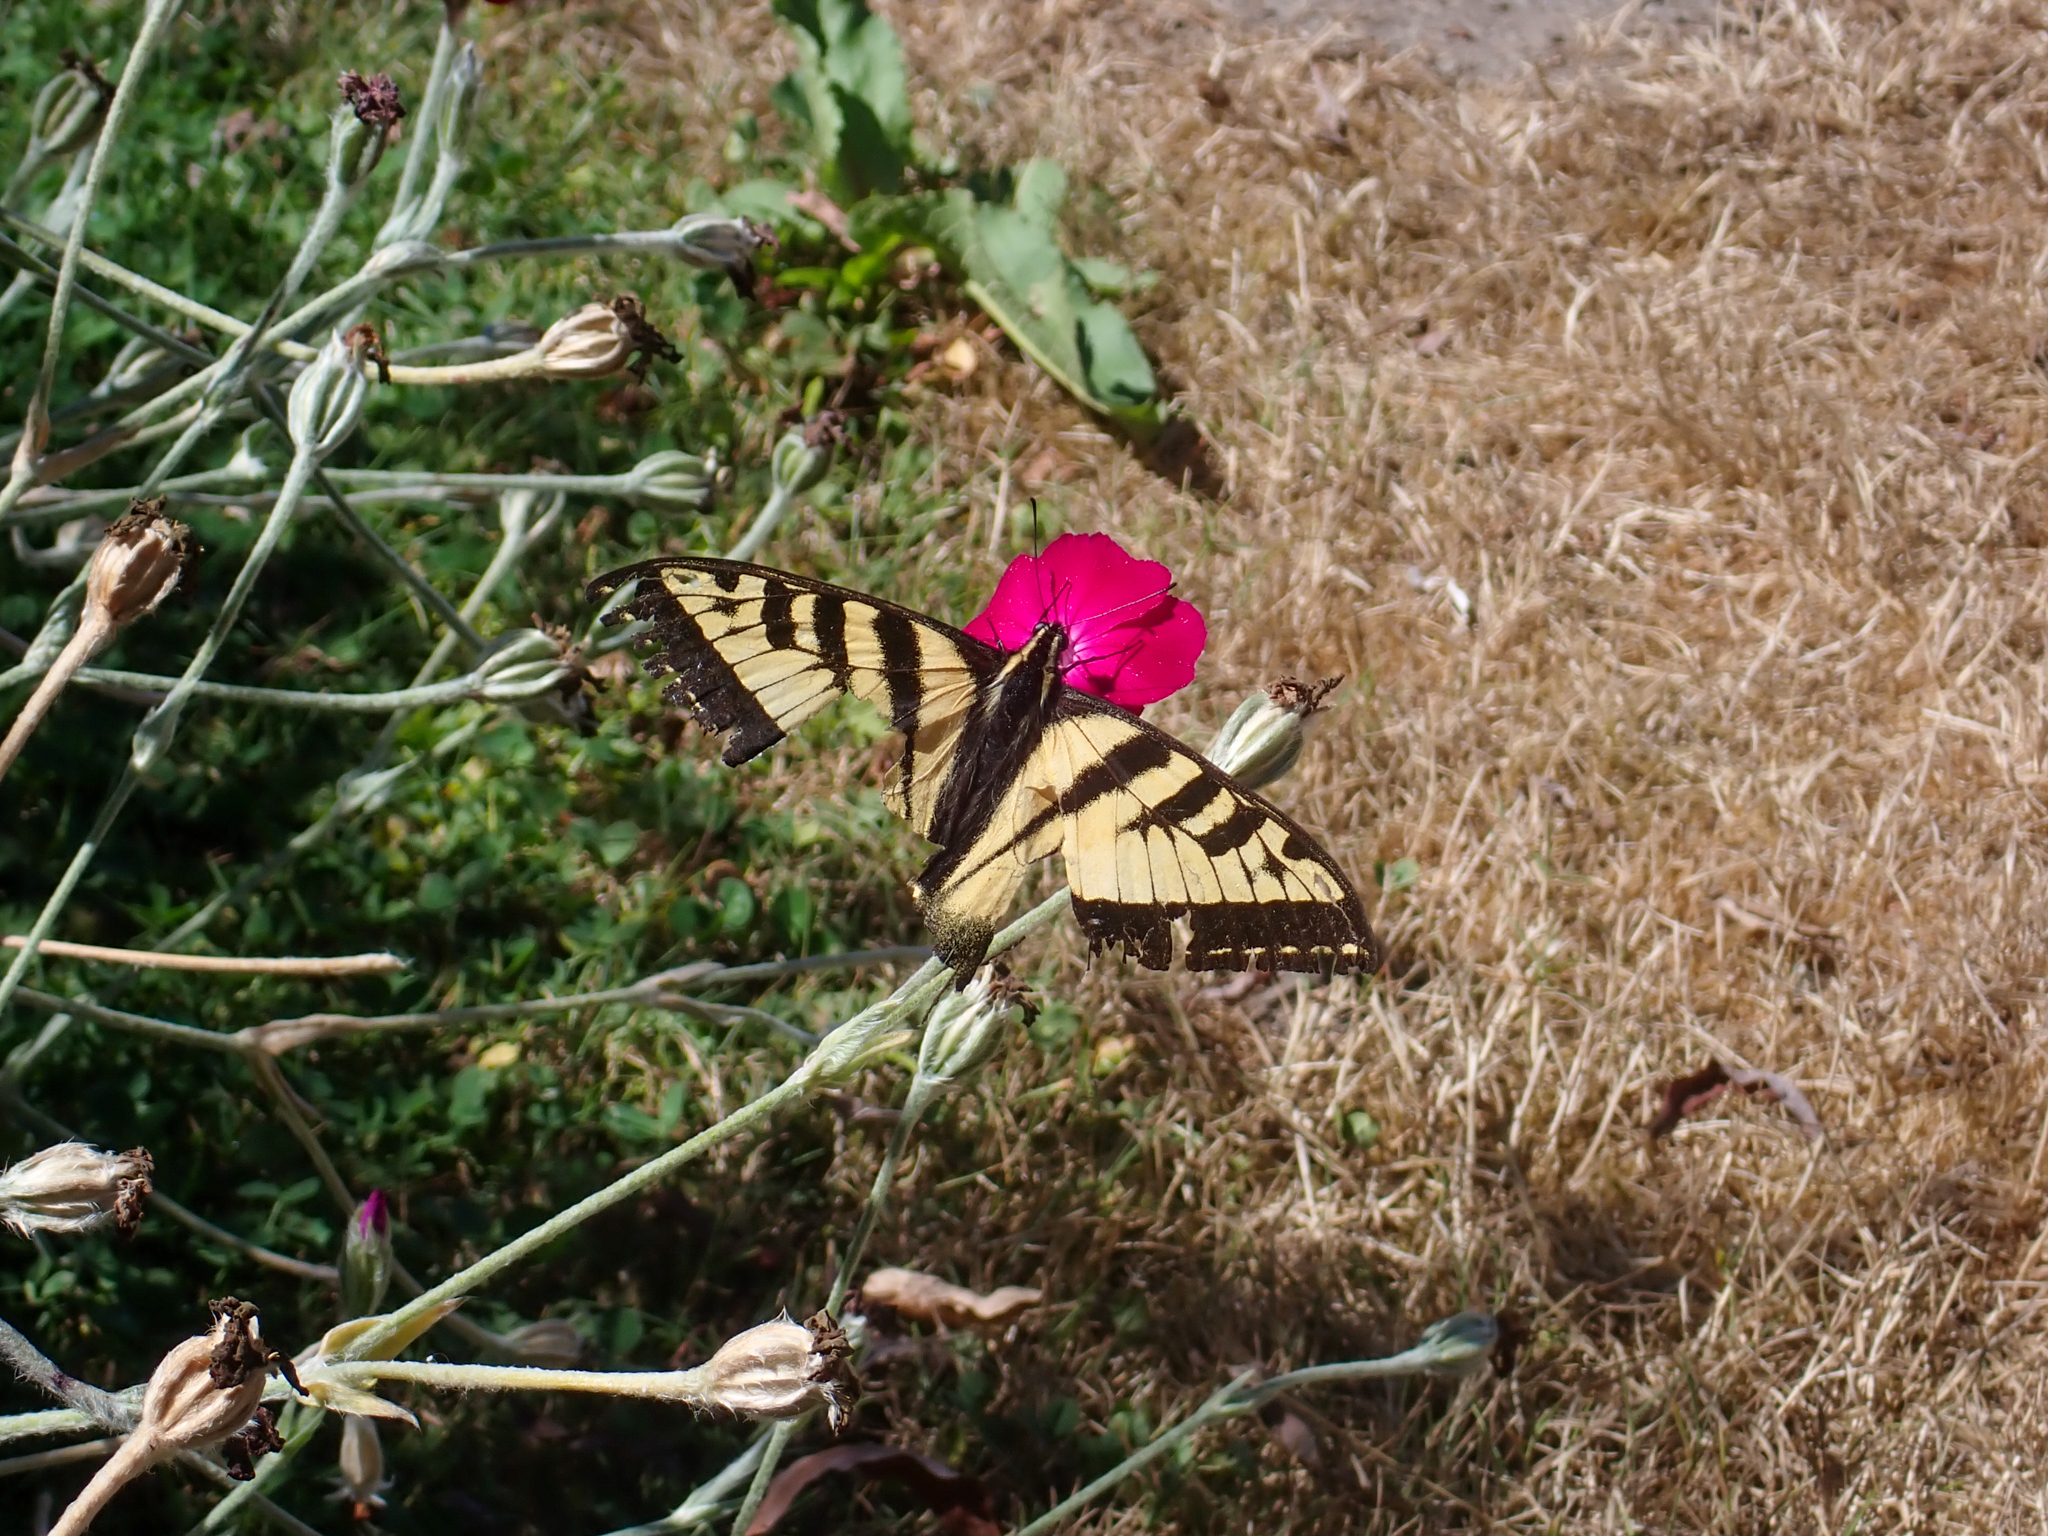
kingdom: Animalia
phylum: Arthropoda
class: Insecta
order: Lepidoptera
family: Papilionidae
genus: Papilio
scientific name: Papilio rutulus
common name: Western tiger swallowtail
